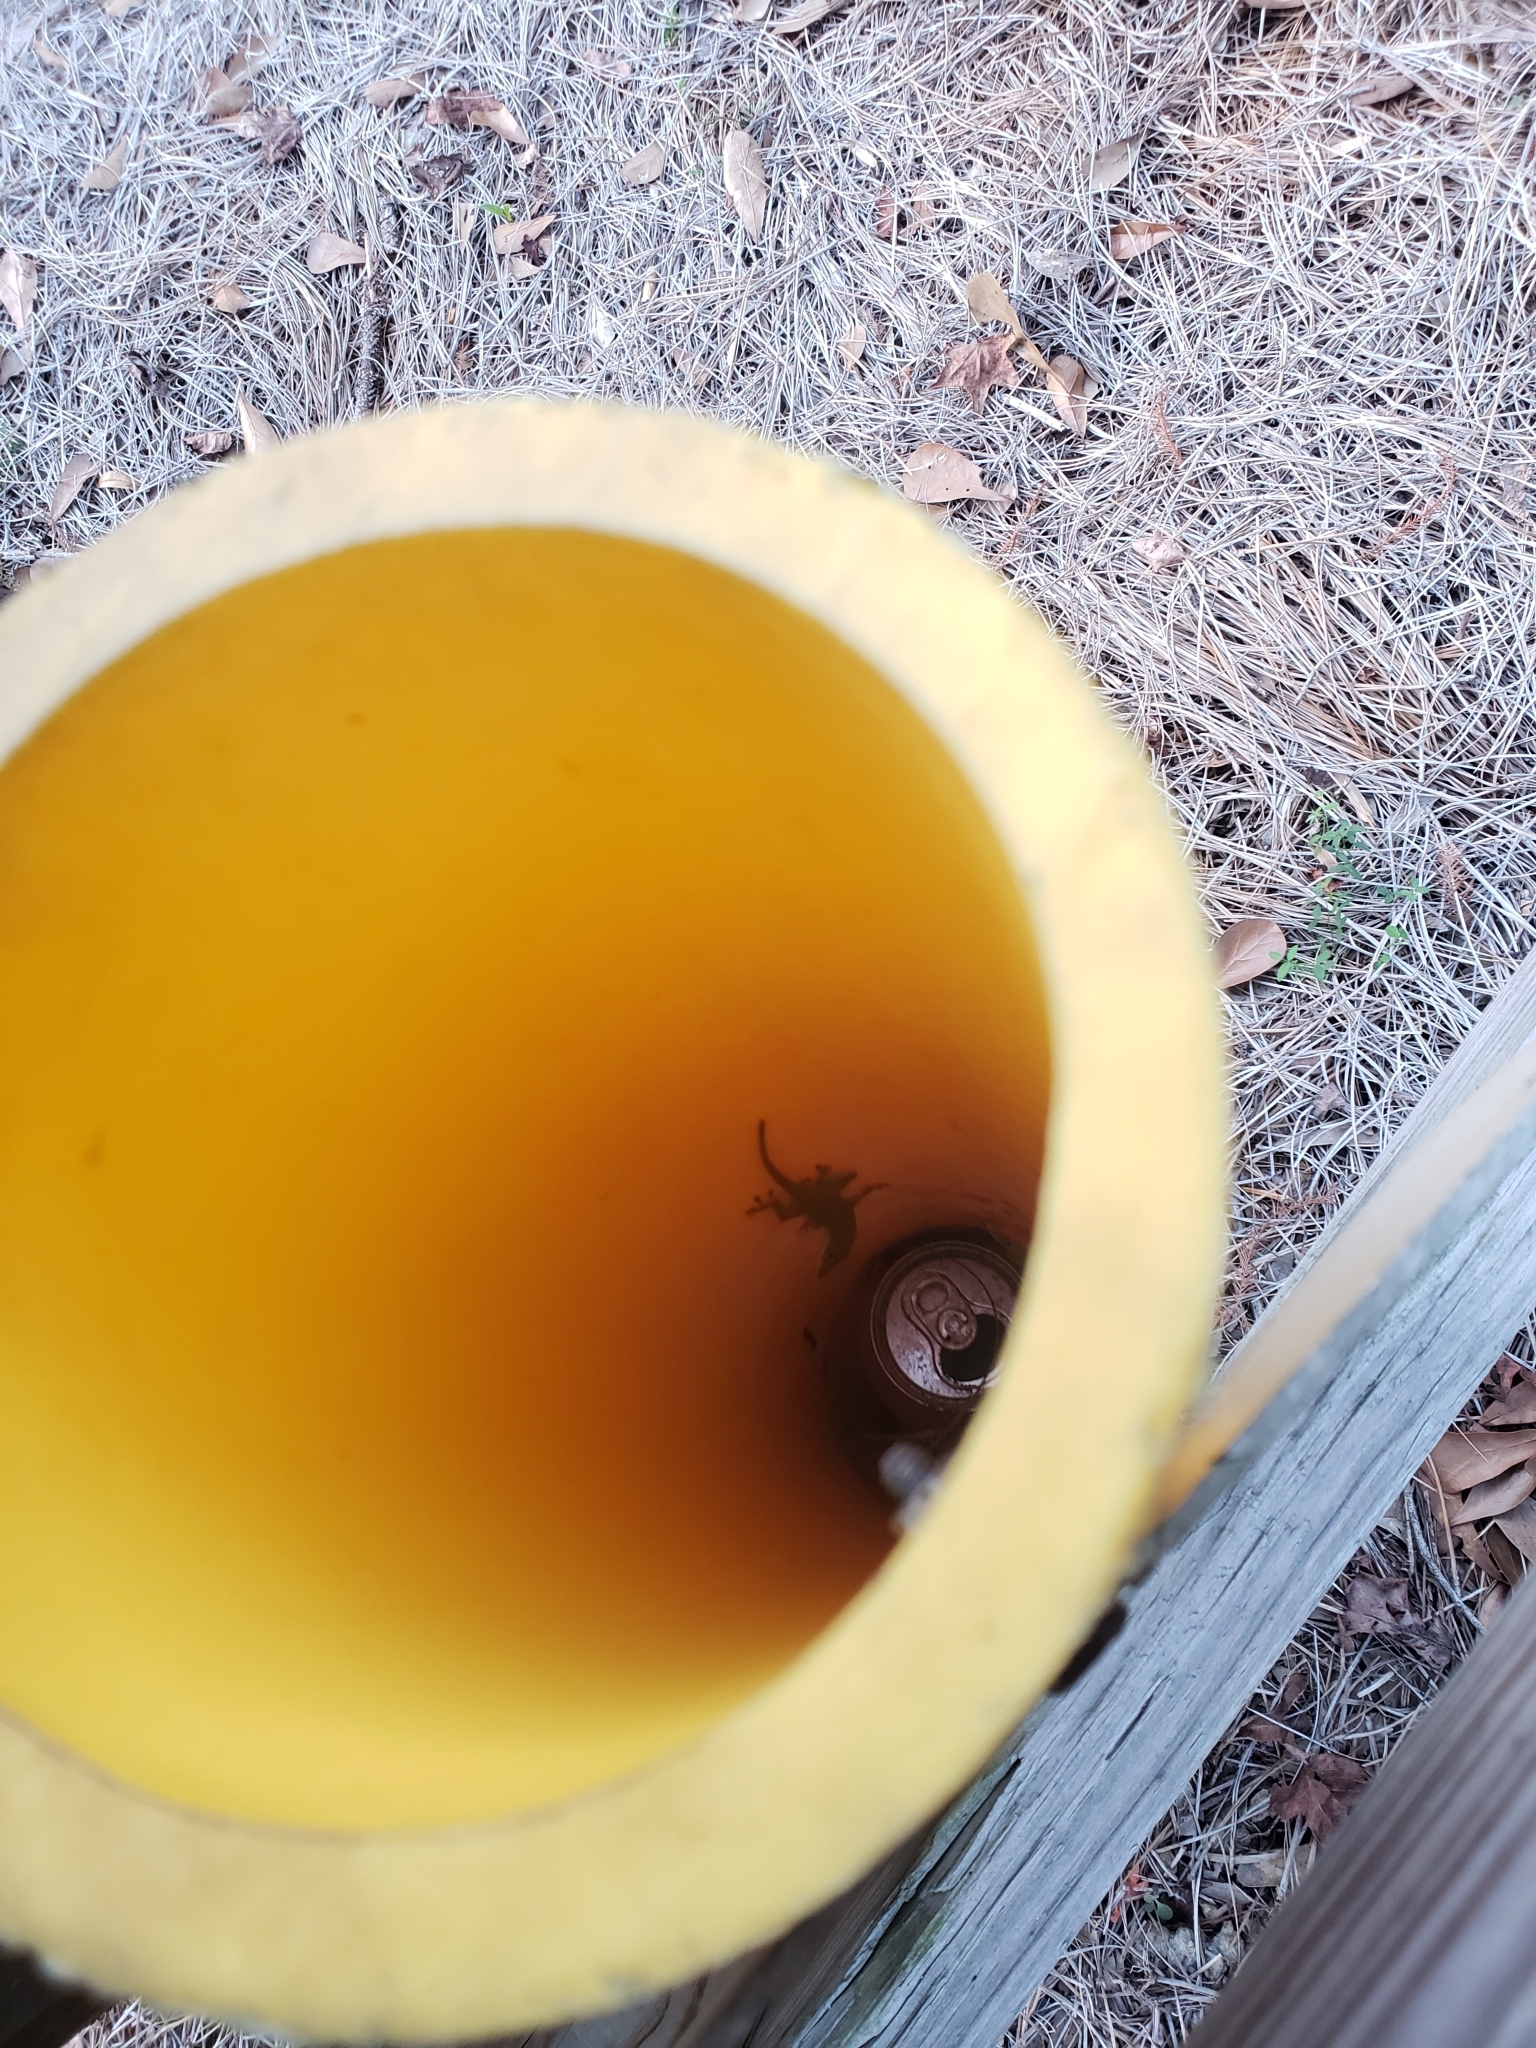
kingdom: Animalia
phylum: Chordata
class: Squamata
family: Dactyloidae
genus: Anolis
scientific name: Anolis carolinensis
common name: Green anole
